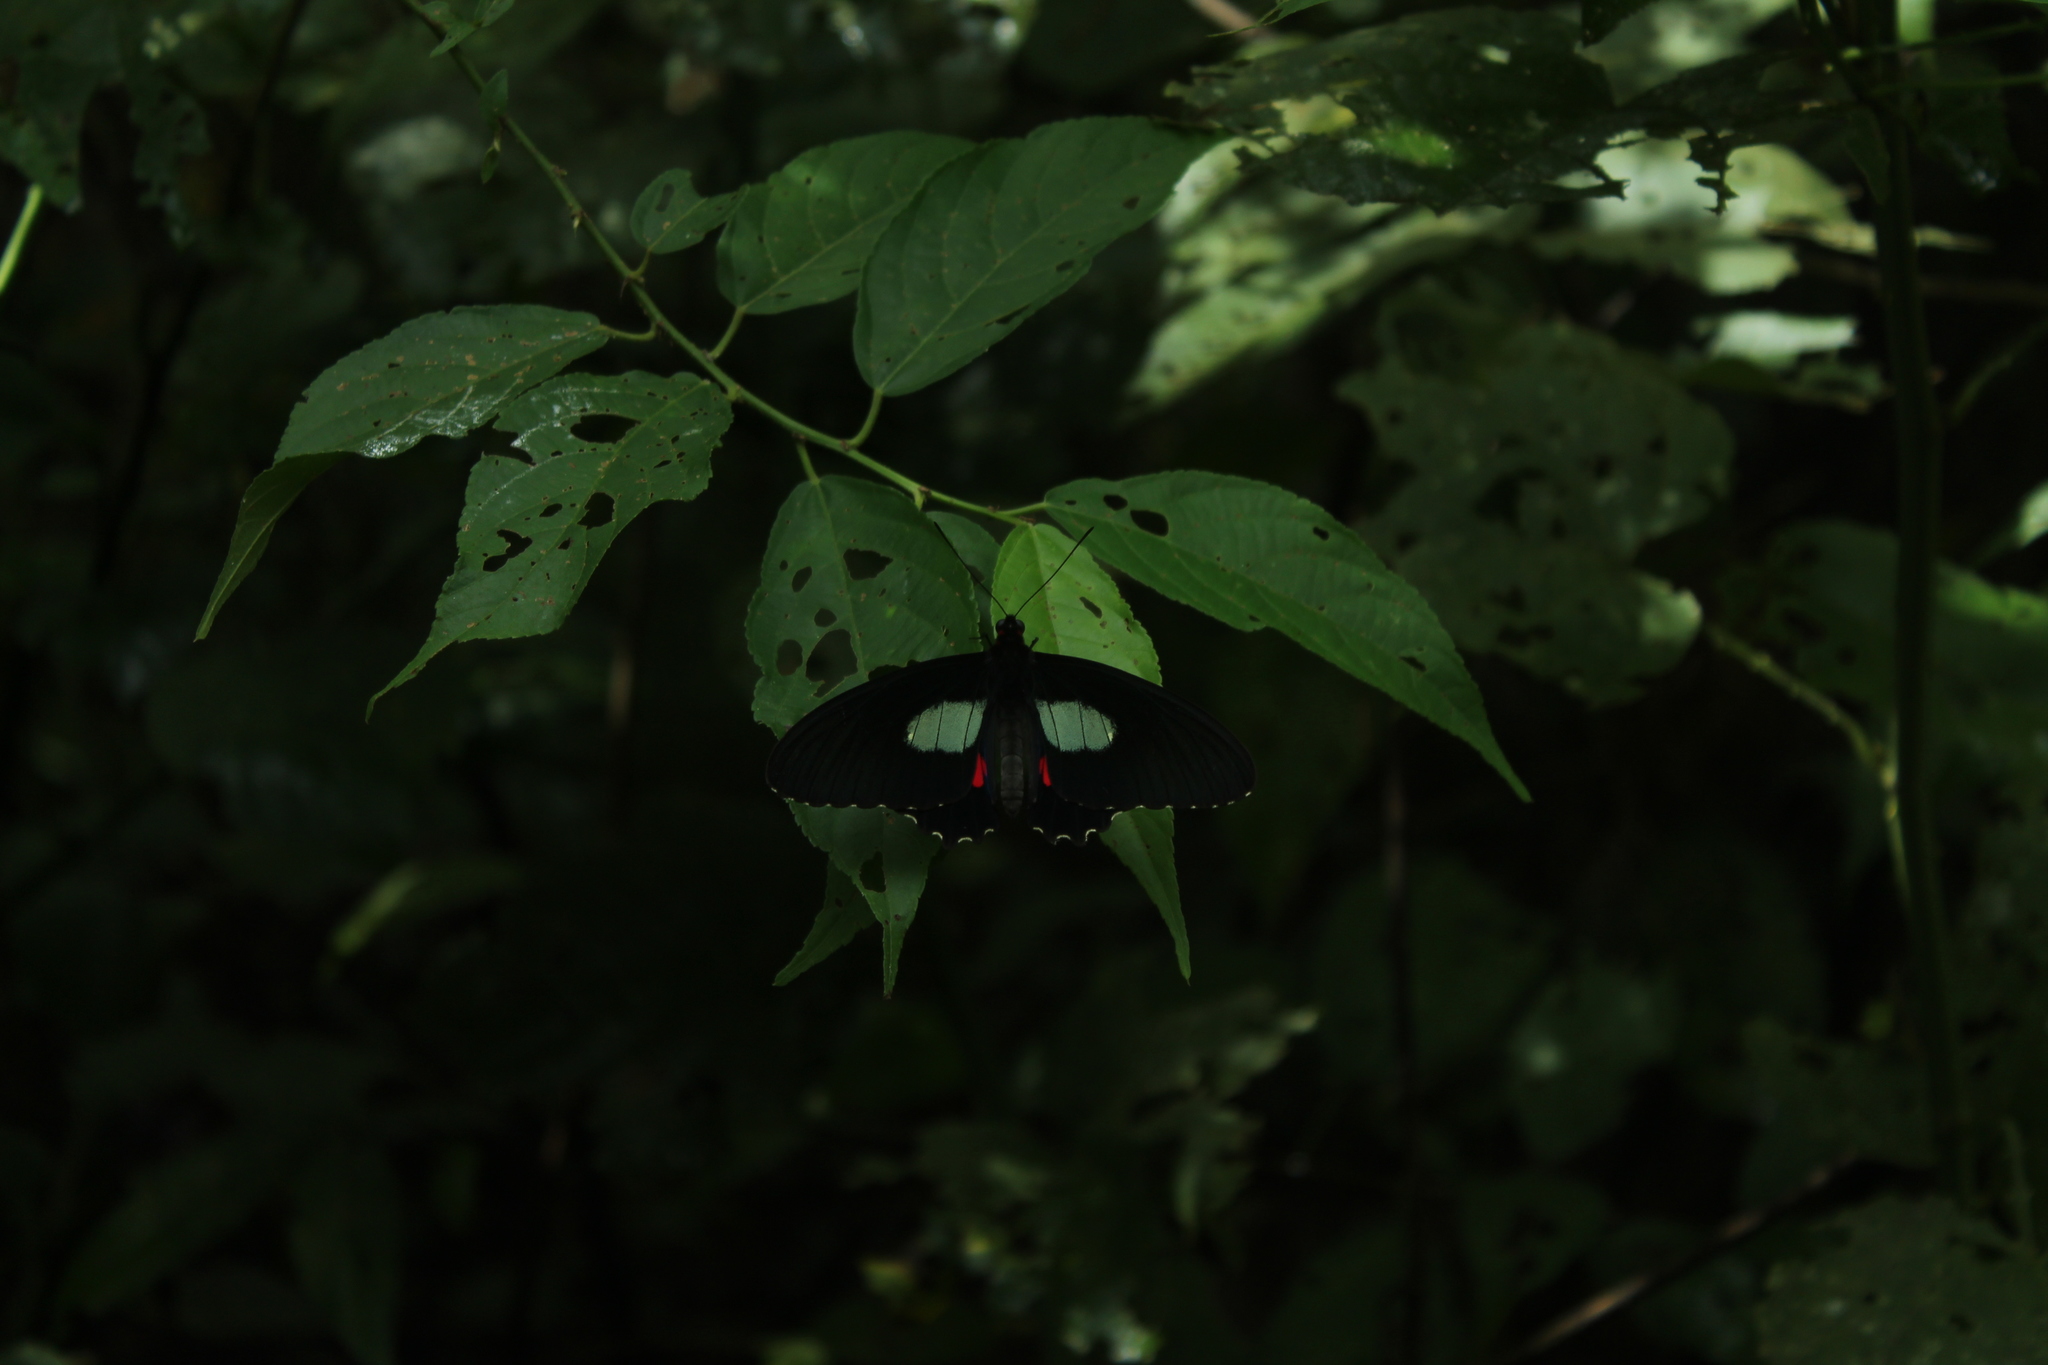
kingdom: Animalia
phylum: Arthropoda
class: Insecta
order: Lepidoptera
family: Papilionidae
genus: Parides
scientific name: Parides anchises
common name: Cattle heart
